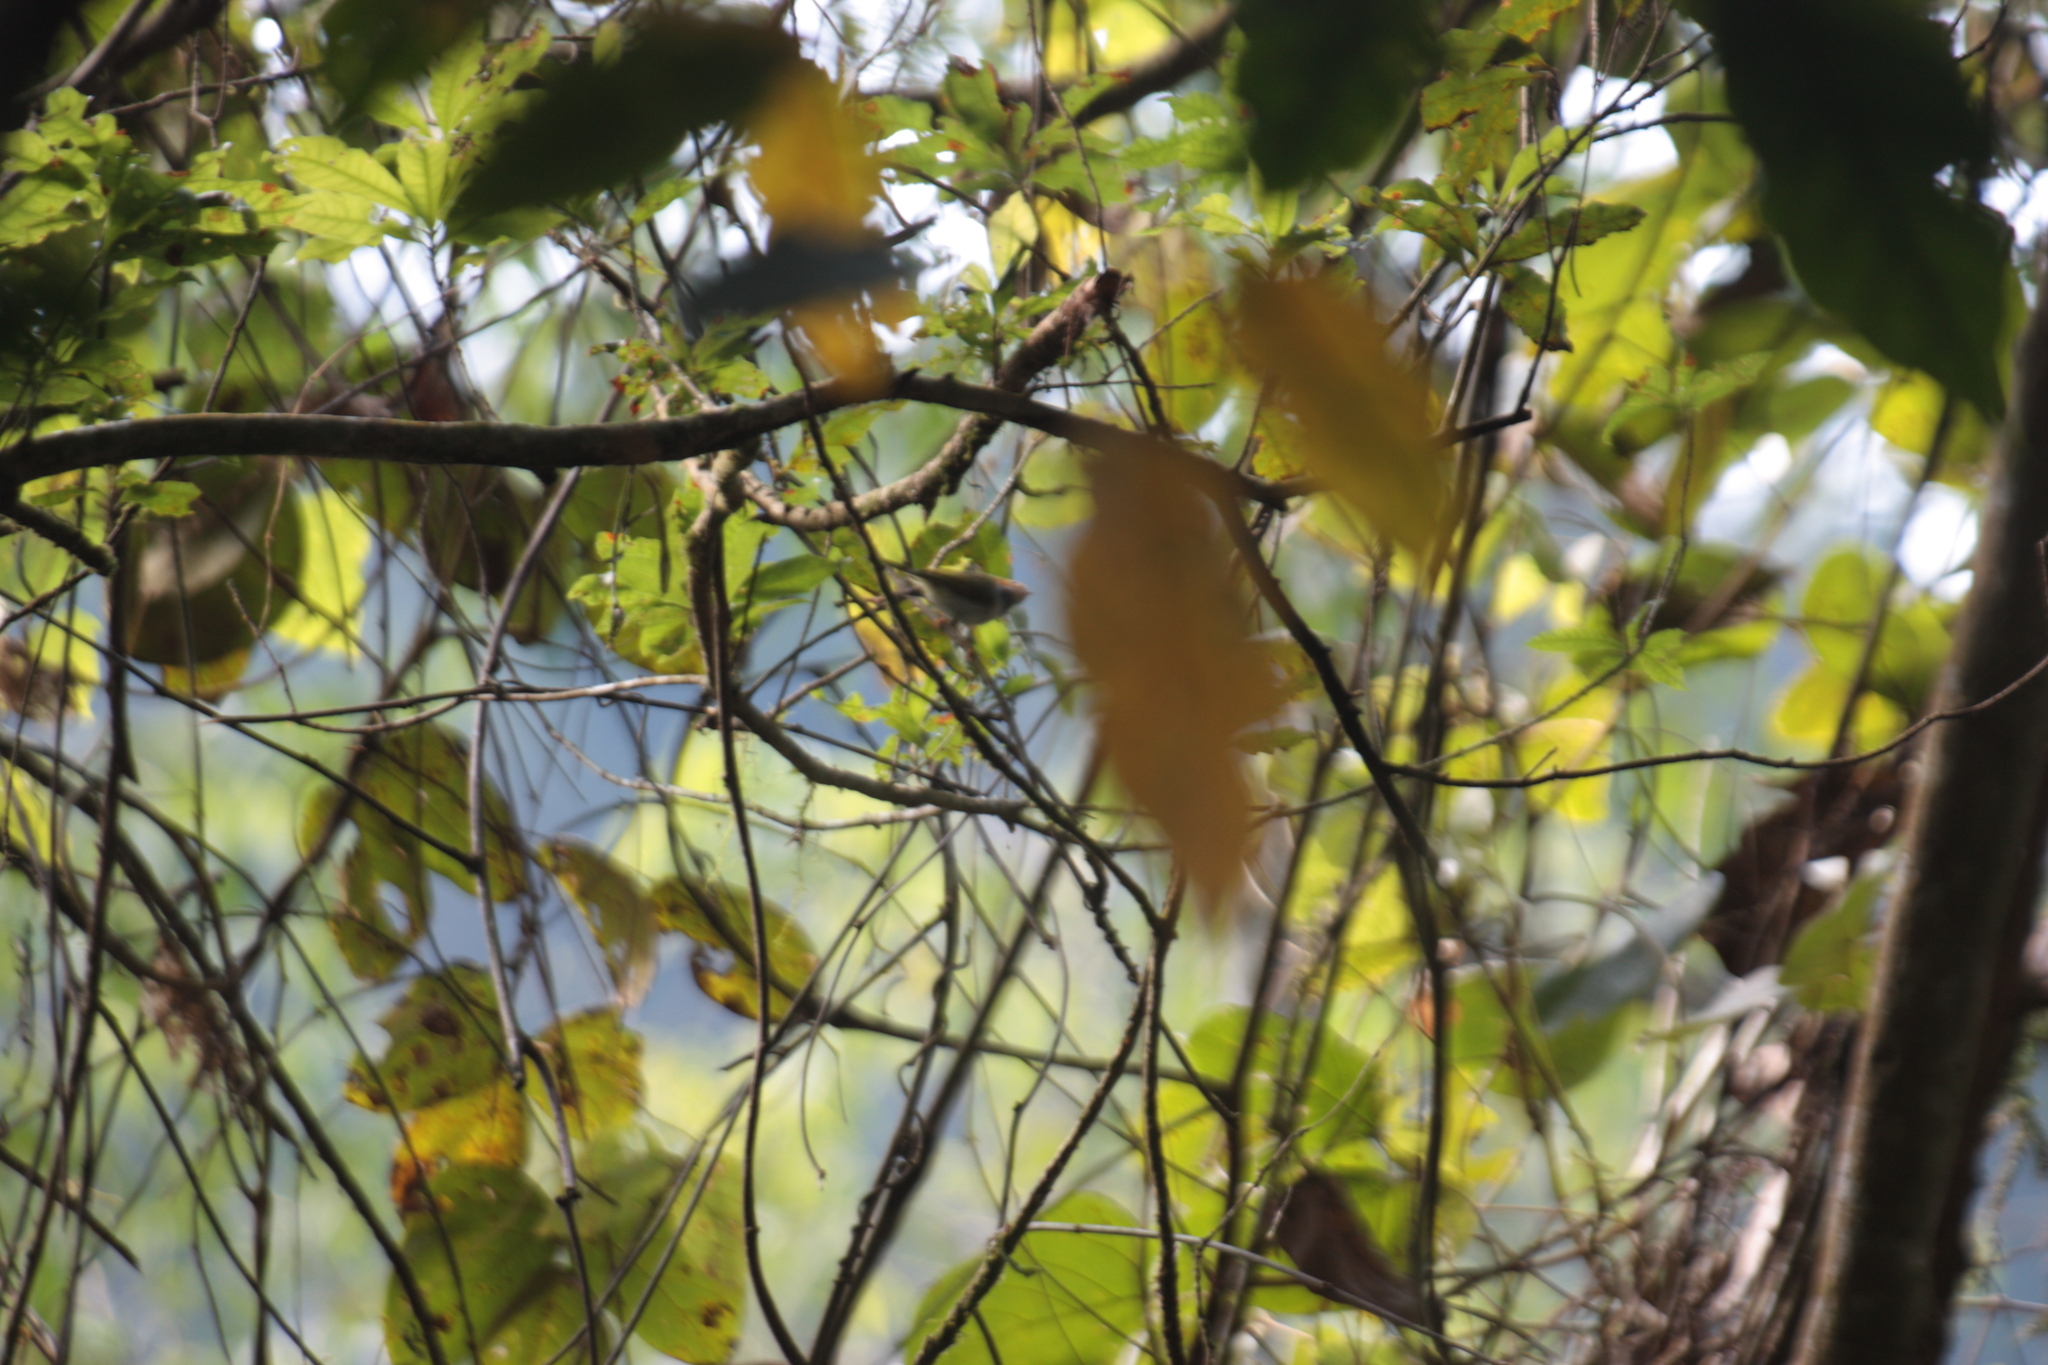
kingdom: Animalia
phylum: Chordata
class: Aves
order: Passeriformes
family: Cettiidae
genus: Abroscopus
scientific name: Abroscopus albogularis
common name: Rufous-faced warbler
